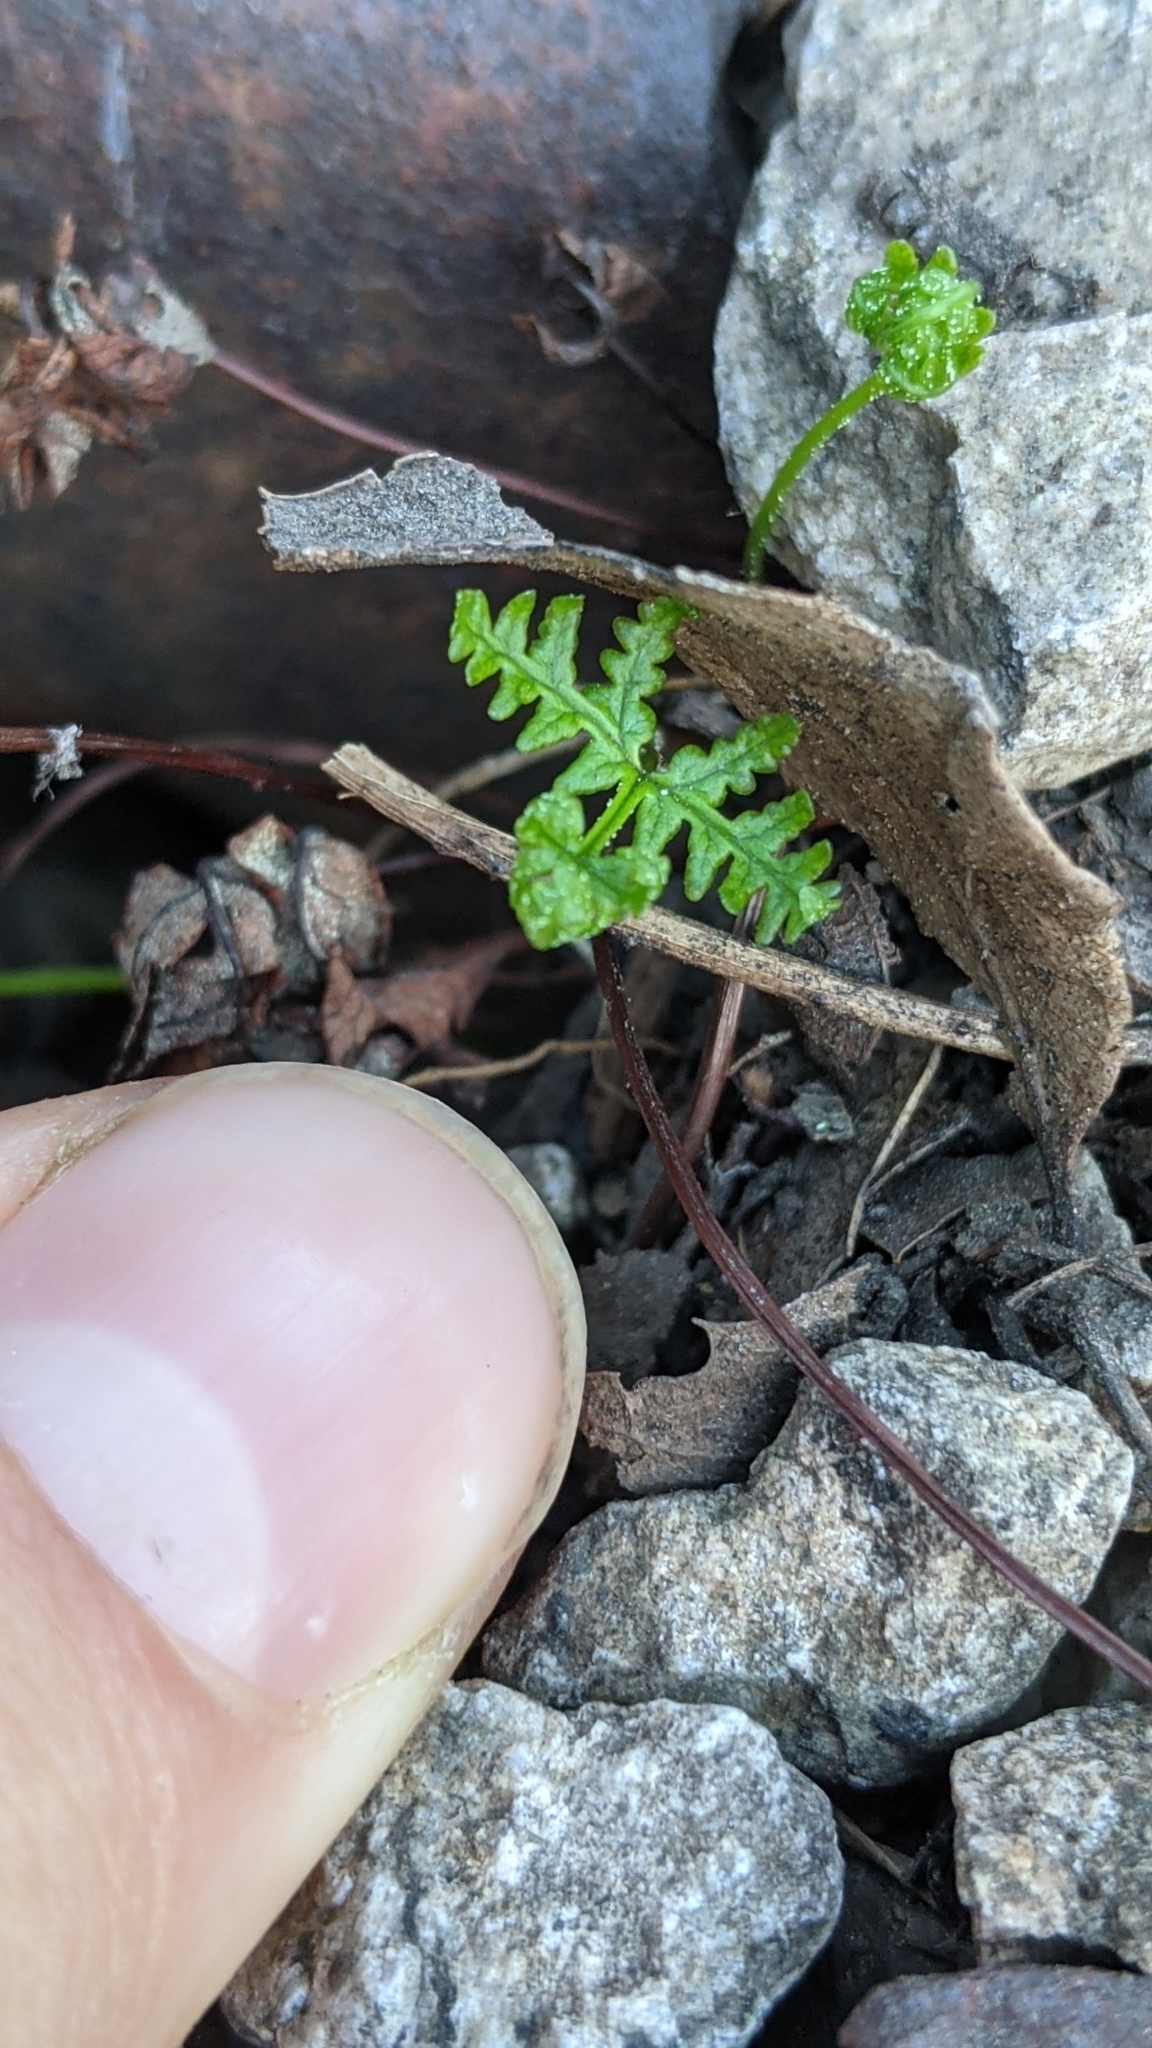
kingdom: Plantae
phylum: Tracheophyta
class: Polypodiopsida
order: Polypodiales
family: Pteridaceae
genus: Pentagramma
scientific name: Pentagramma triangularis
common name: Gold fern
